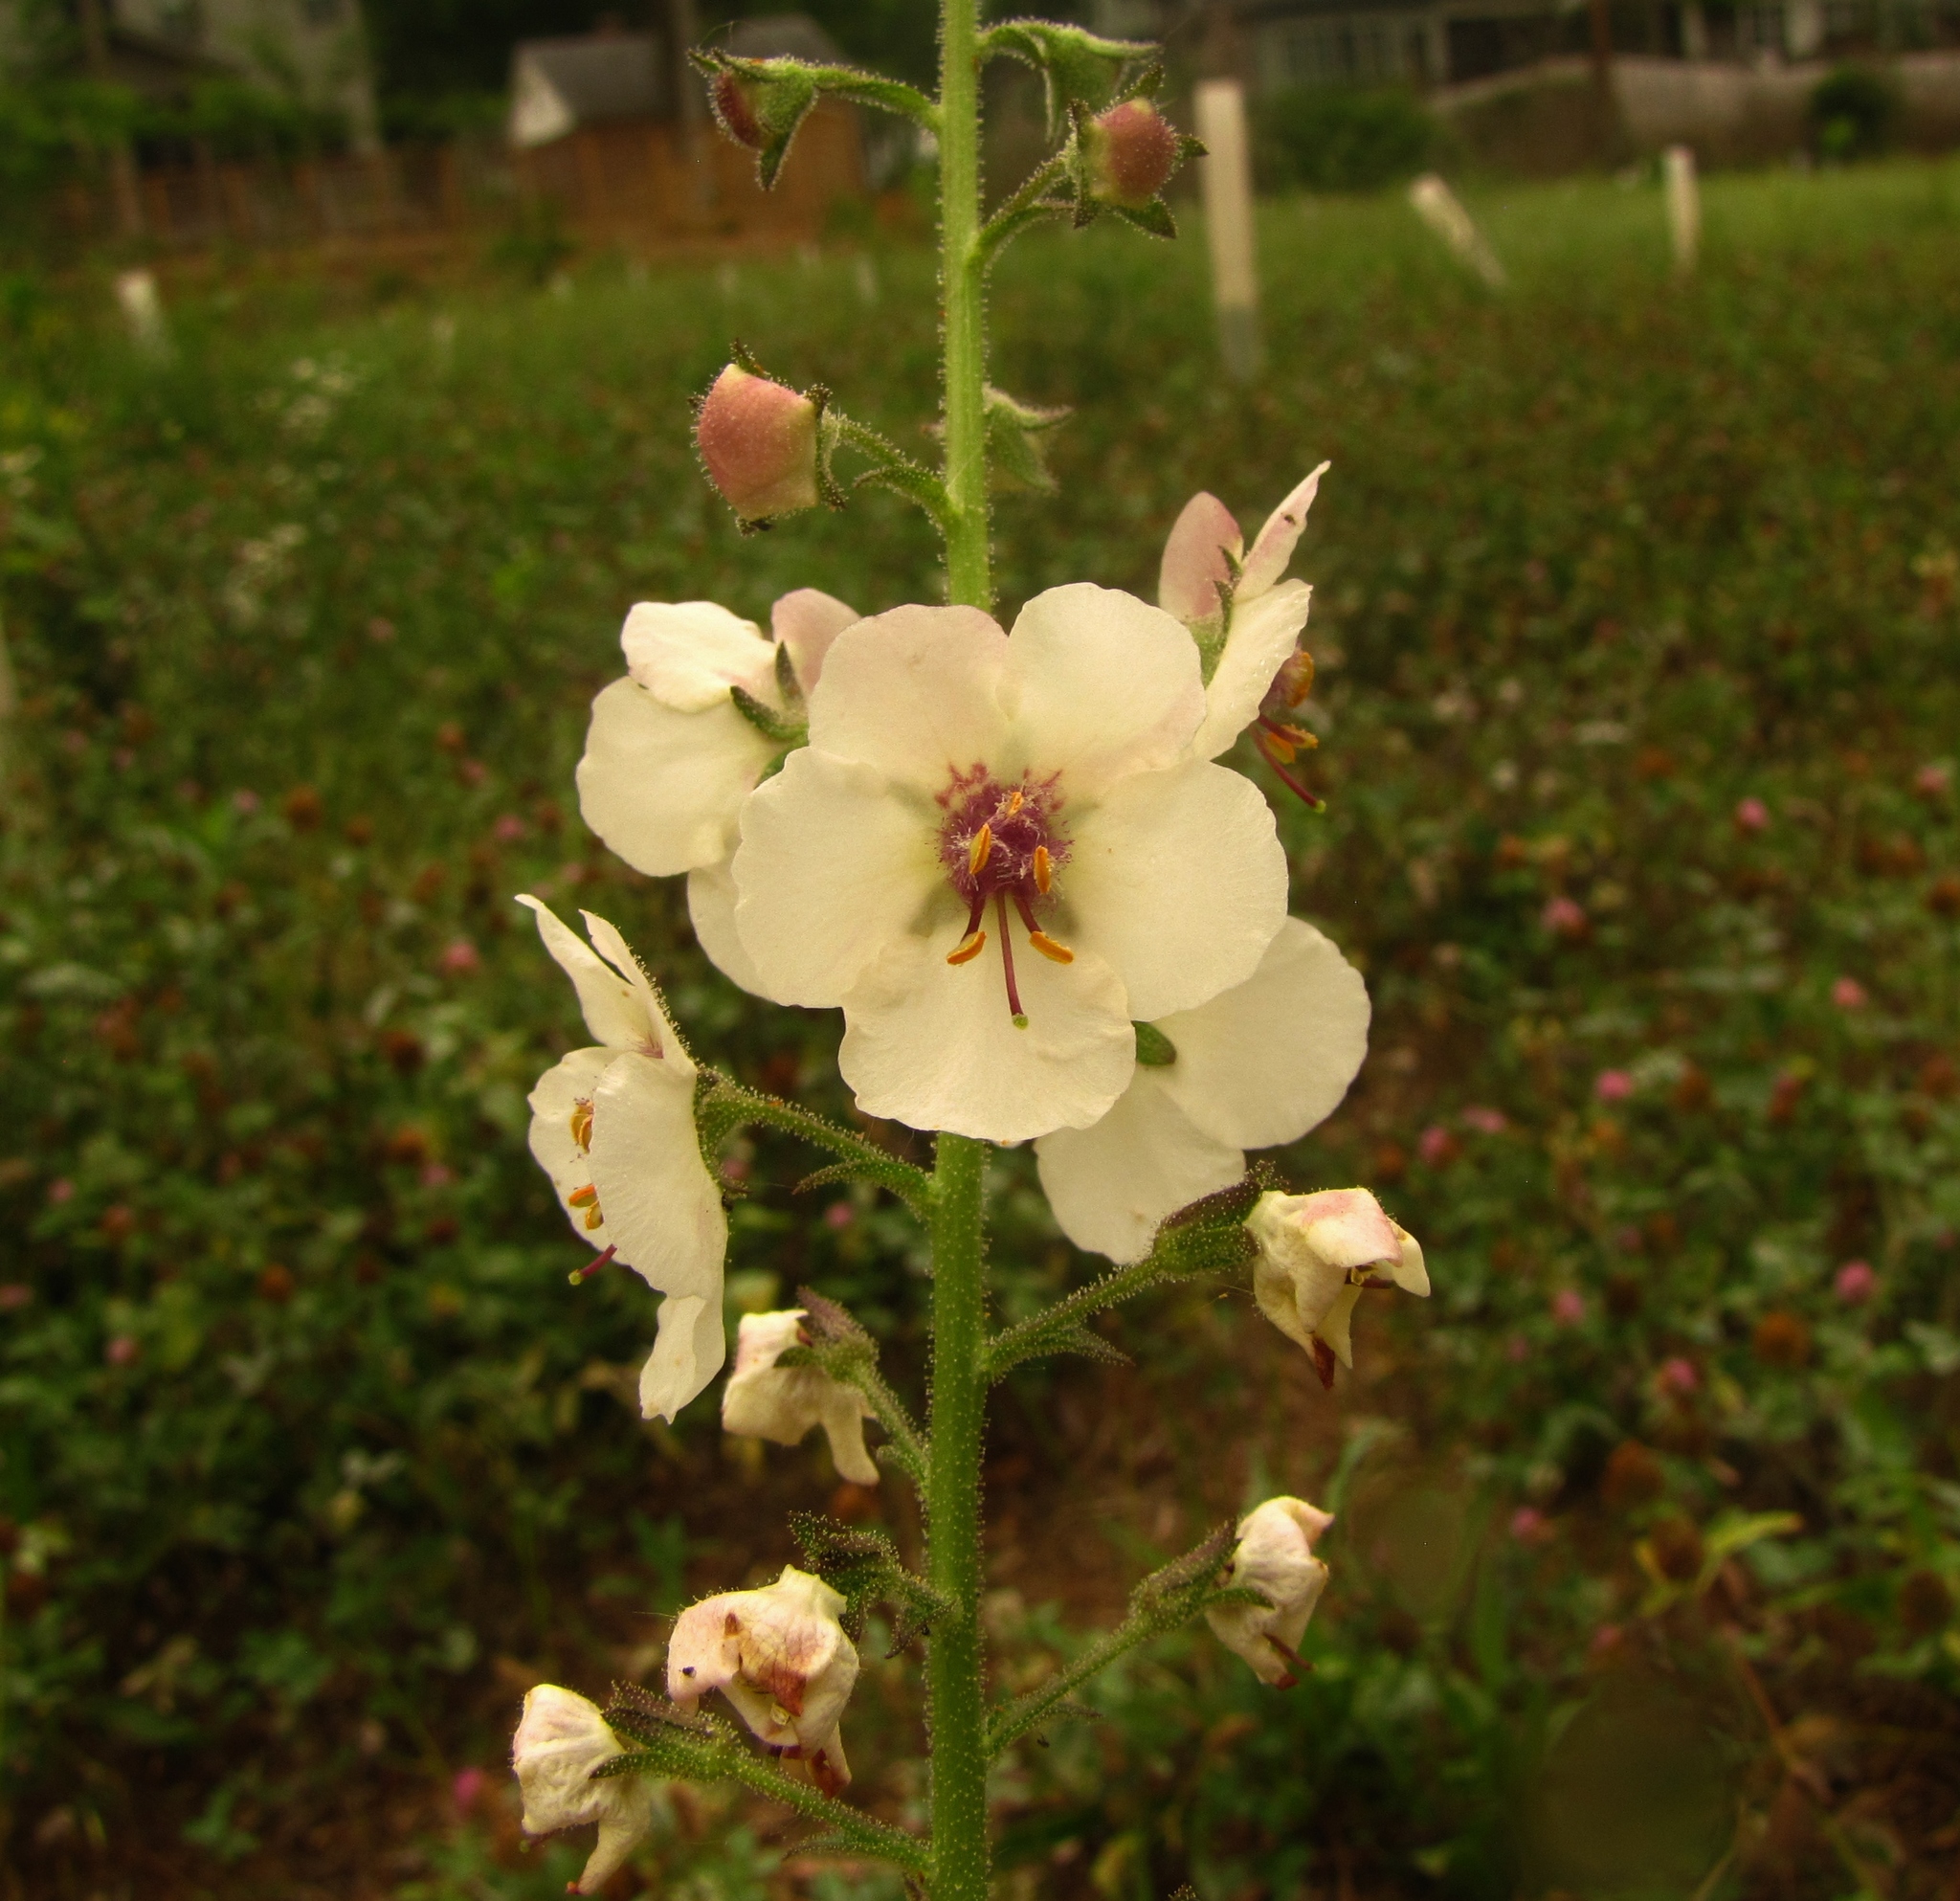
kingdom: Plantae
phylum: Tracheophyta
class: Magnoliopsida
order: Lamiales
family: Scrophulariaceae
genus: Verbascum
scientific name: Verbascum blattaria
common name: Moth mullein
